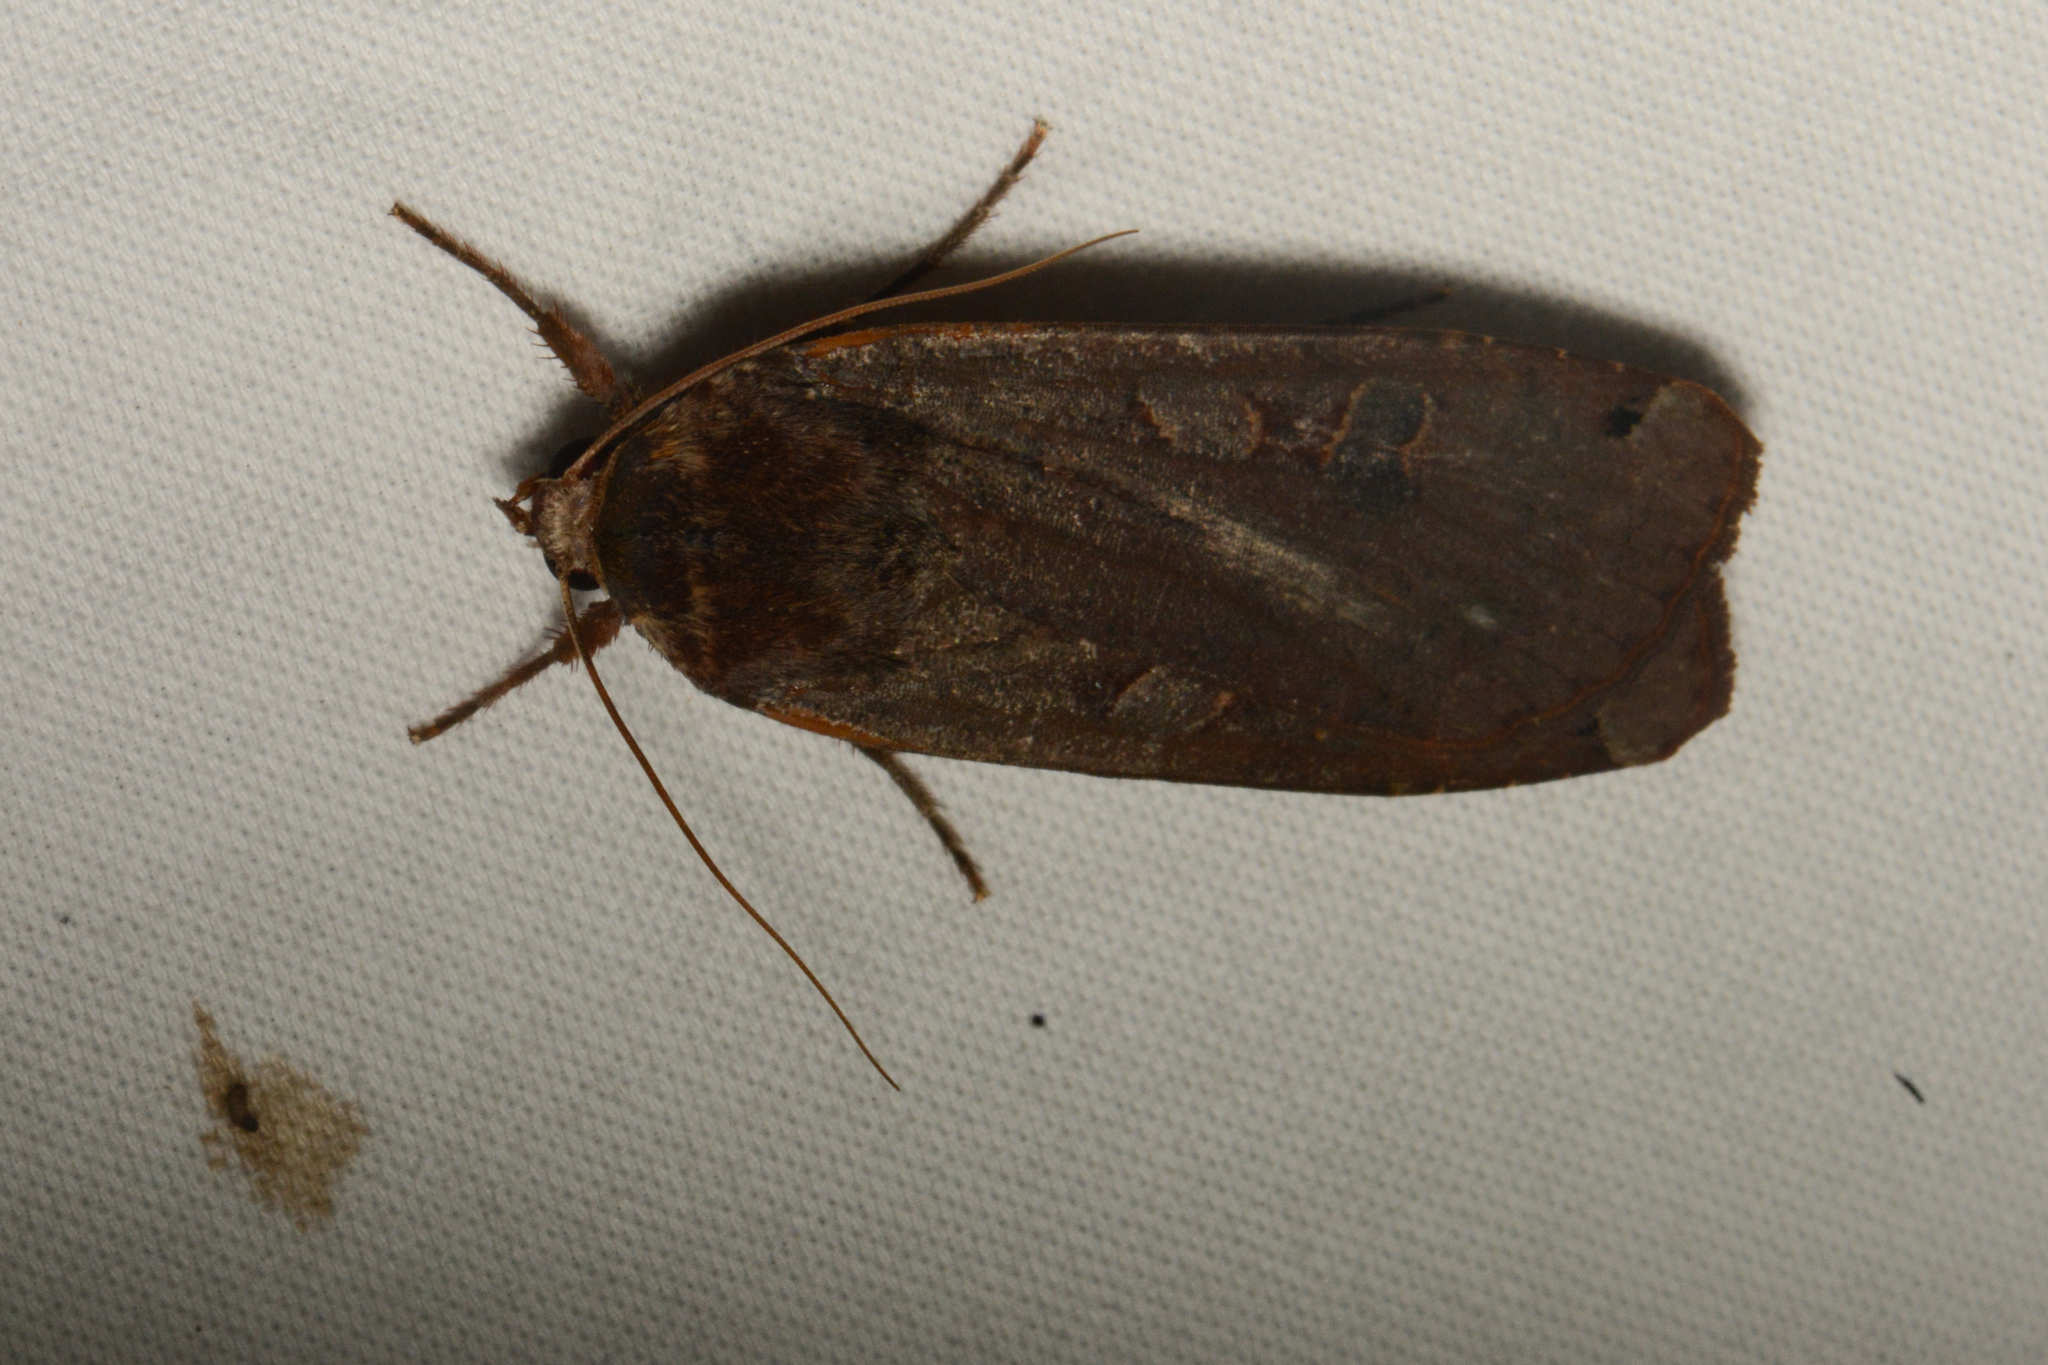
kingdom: Animalia
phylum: Arthropoda
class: Insecta
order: Lepidoptera
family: Noctuidae
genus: Noctua
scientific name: Noctua pronuba
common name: Large yellow underwing
